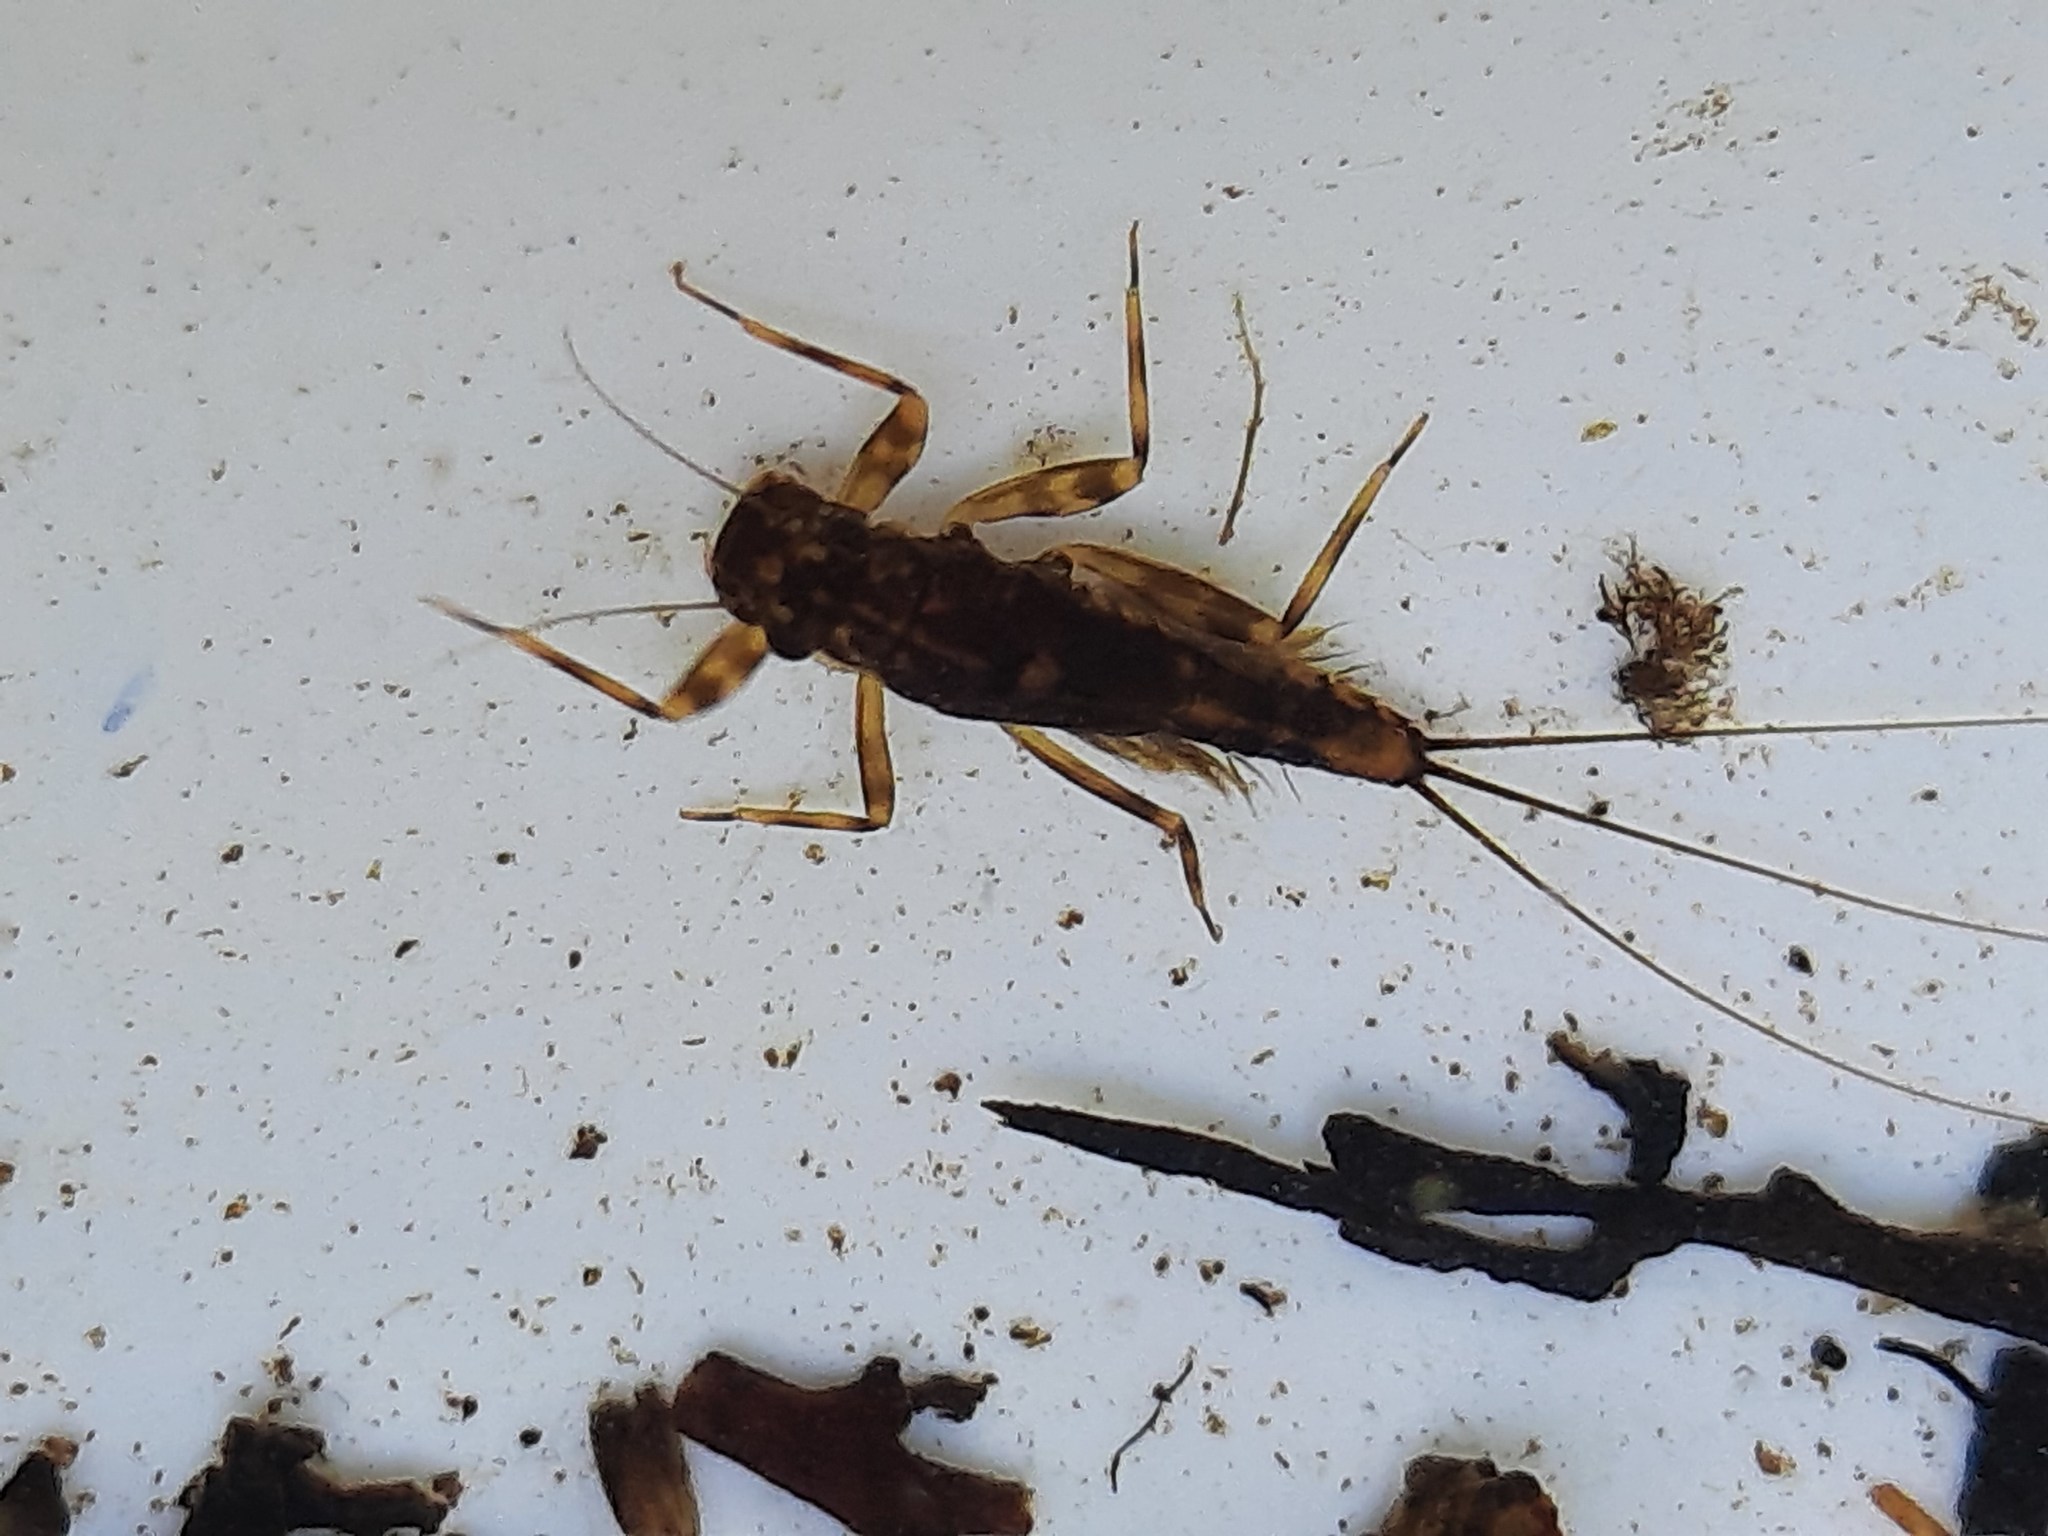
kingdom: Animalia
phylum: Arthropoda
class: Insecta
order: Ephemeroptera
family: Leptophlebiidae
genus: Zephlebia
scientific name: Zephlebia versicolor
